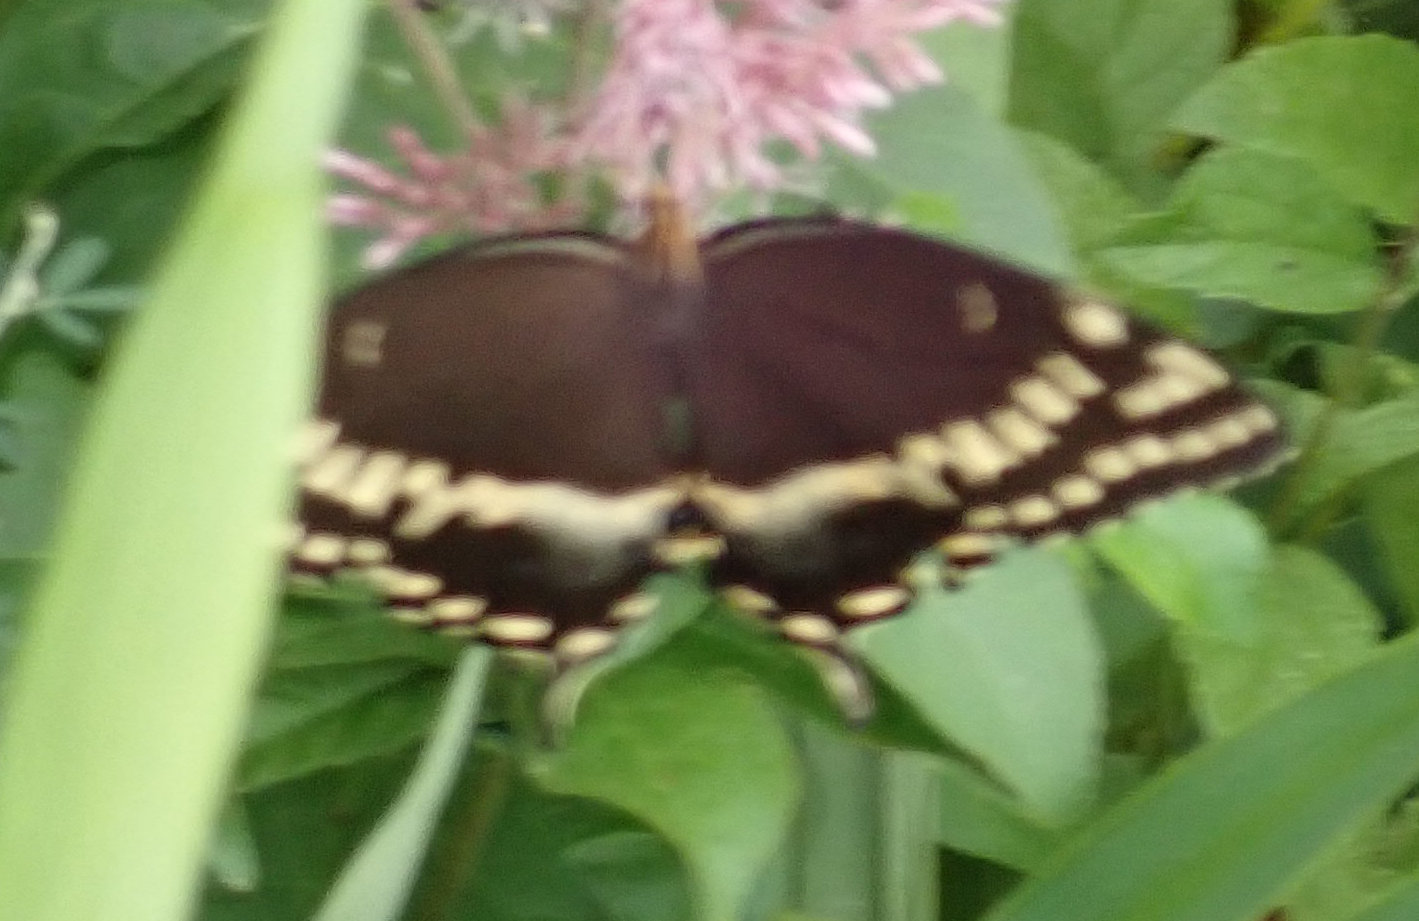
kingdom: Animalia
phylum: Arthropoda
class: Insecta
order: Lepidoptera
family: Papilionidae
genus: Papilio
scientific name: Papilio palamedes
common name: Palamedes swallowtail
